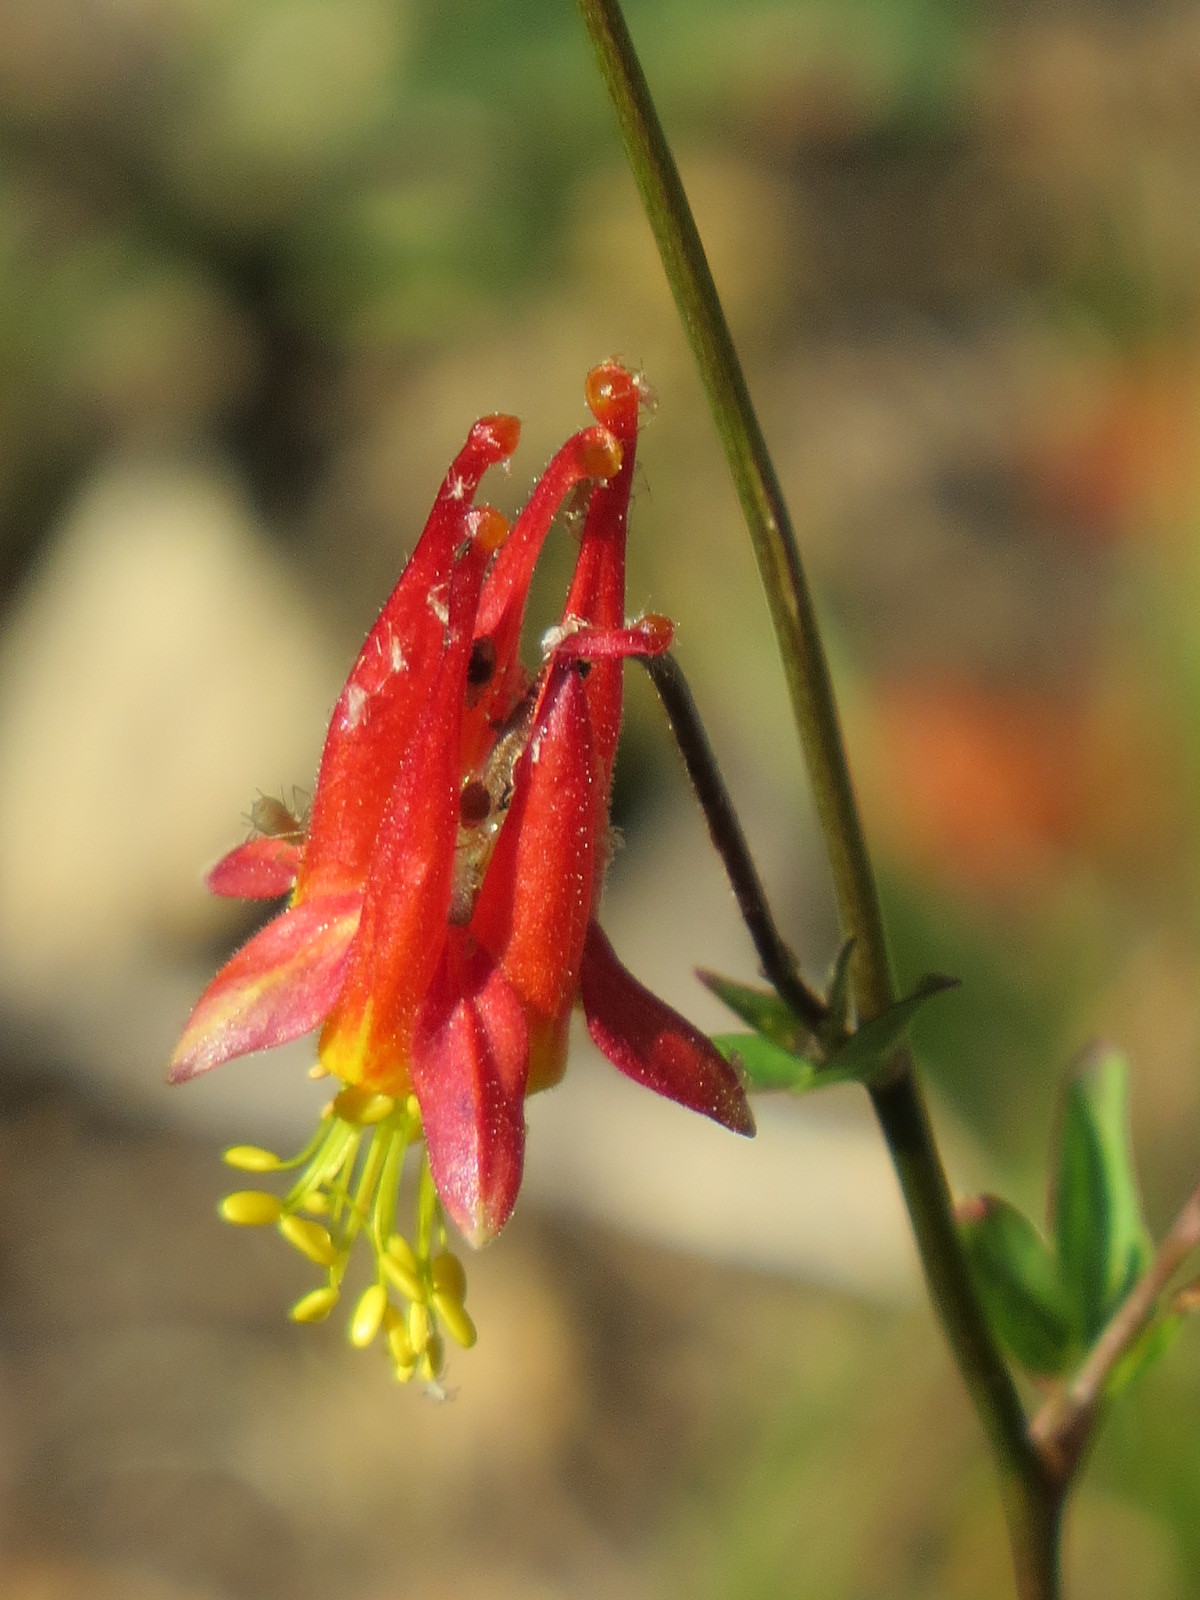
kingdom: Plantae
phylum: Tracheophyta
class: Magnoliopsida
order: Ranunculales
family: Ranunculaceae
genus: Aquilegia
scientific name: Aquilegia formosa
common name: Sitka columbine
